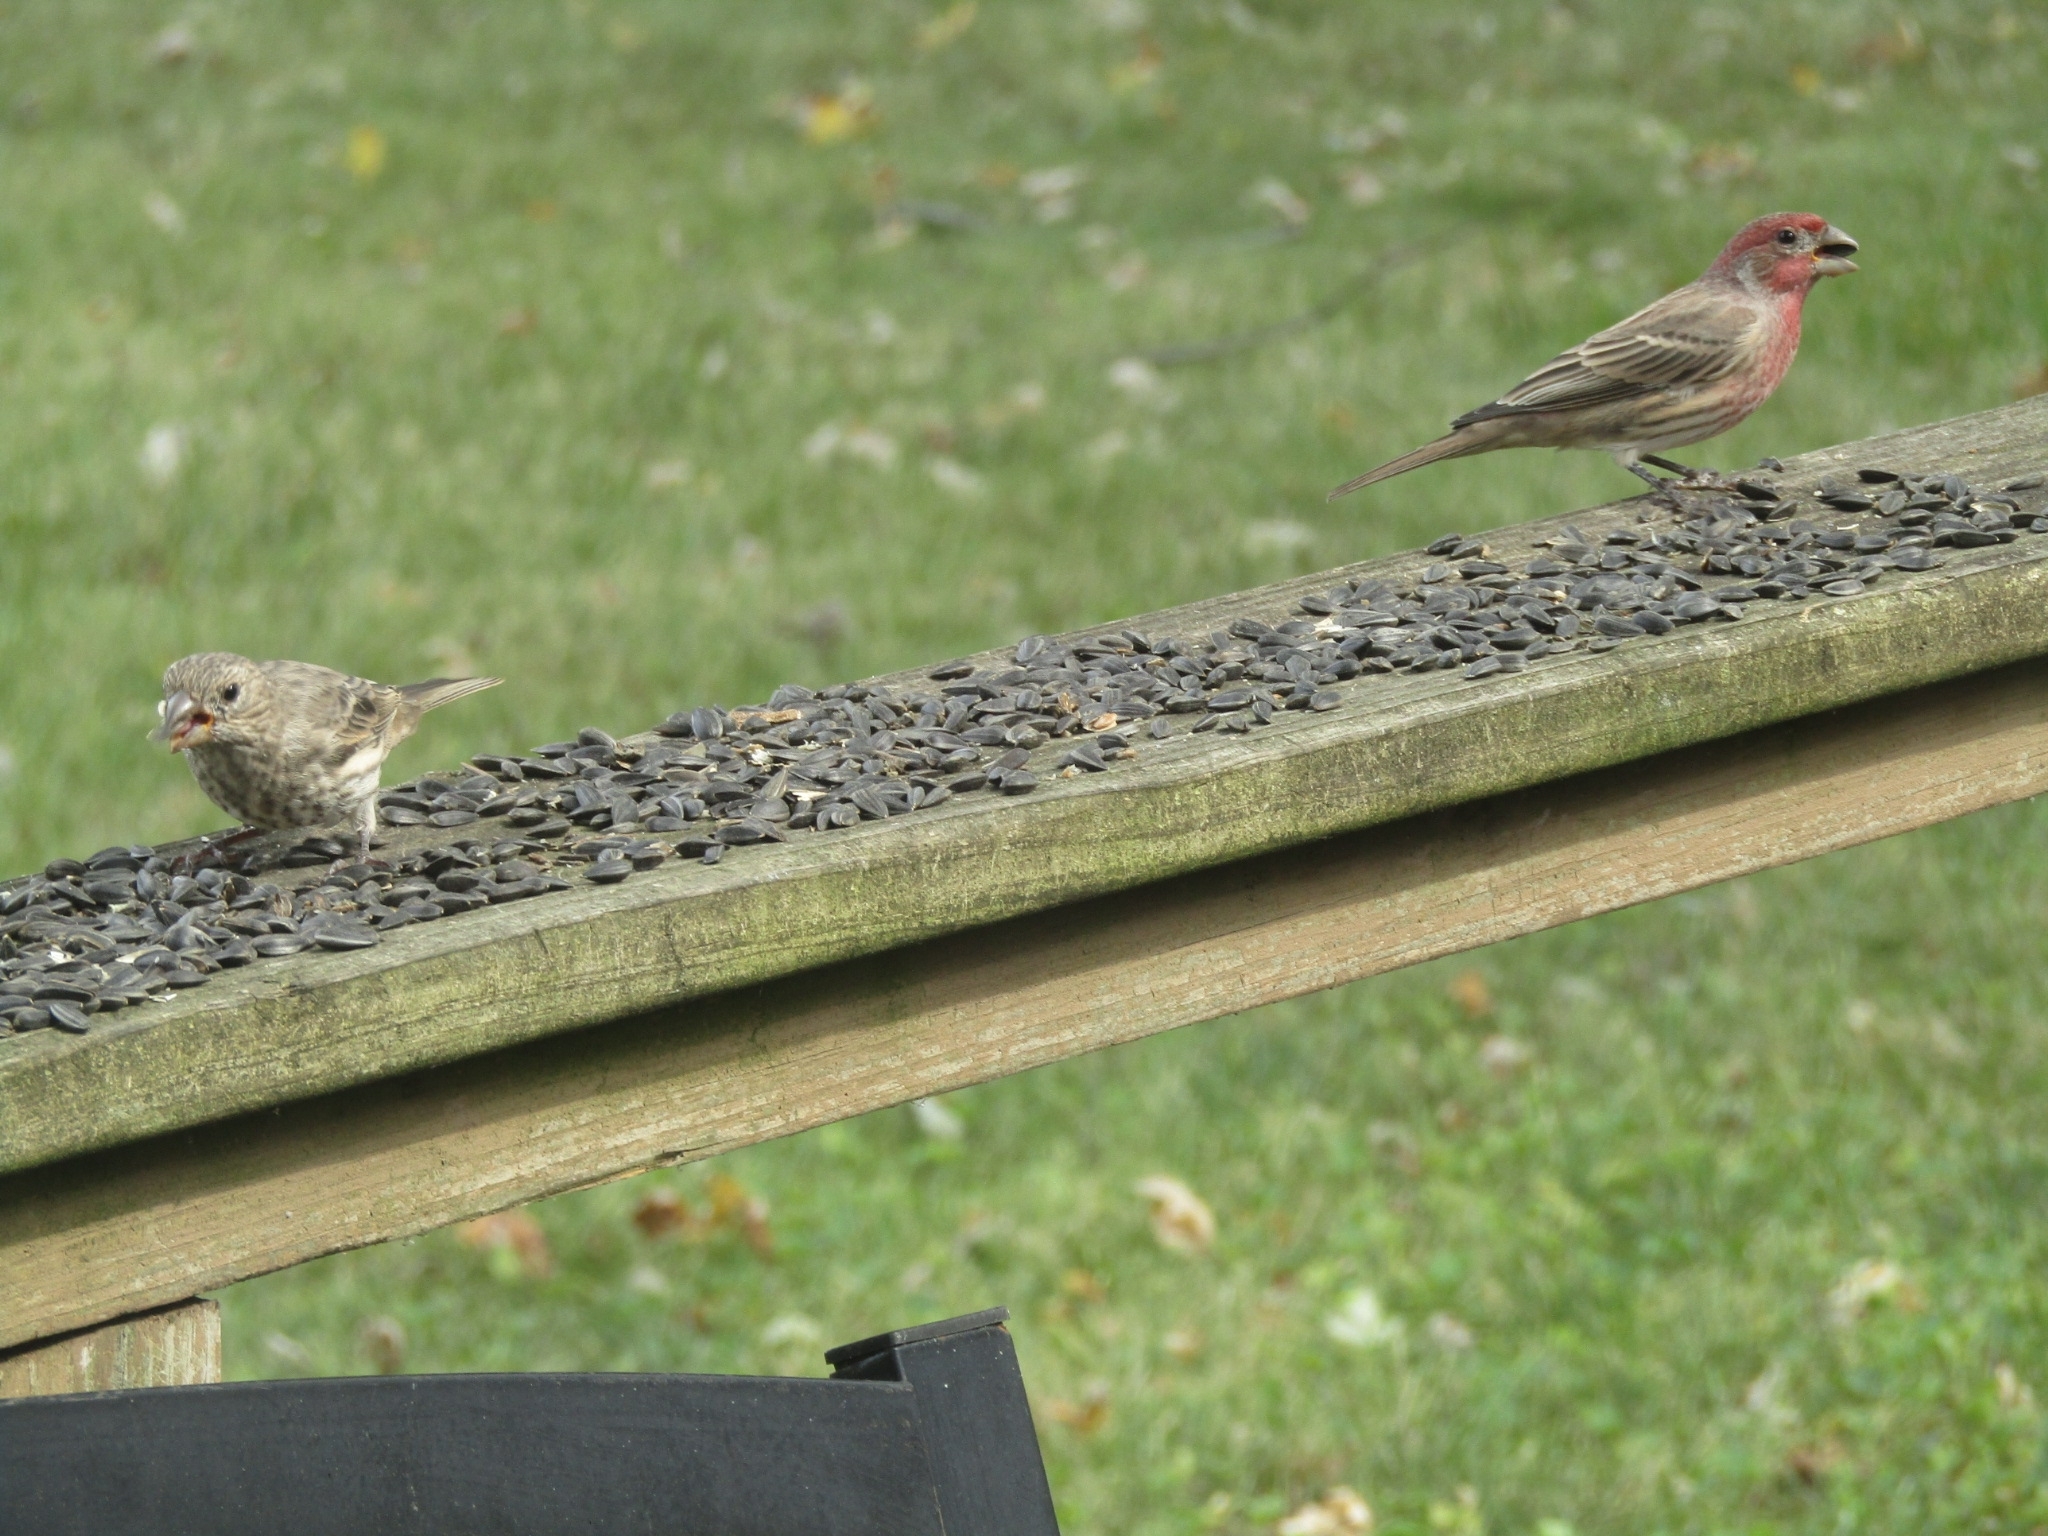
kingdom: Animalia
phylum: Chordata
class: Aves
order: Passeriformes
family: Fringillidae
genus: Haemorhous
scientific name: Haemorhous mexicanus
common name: House finch
